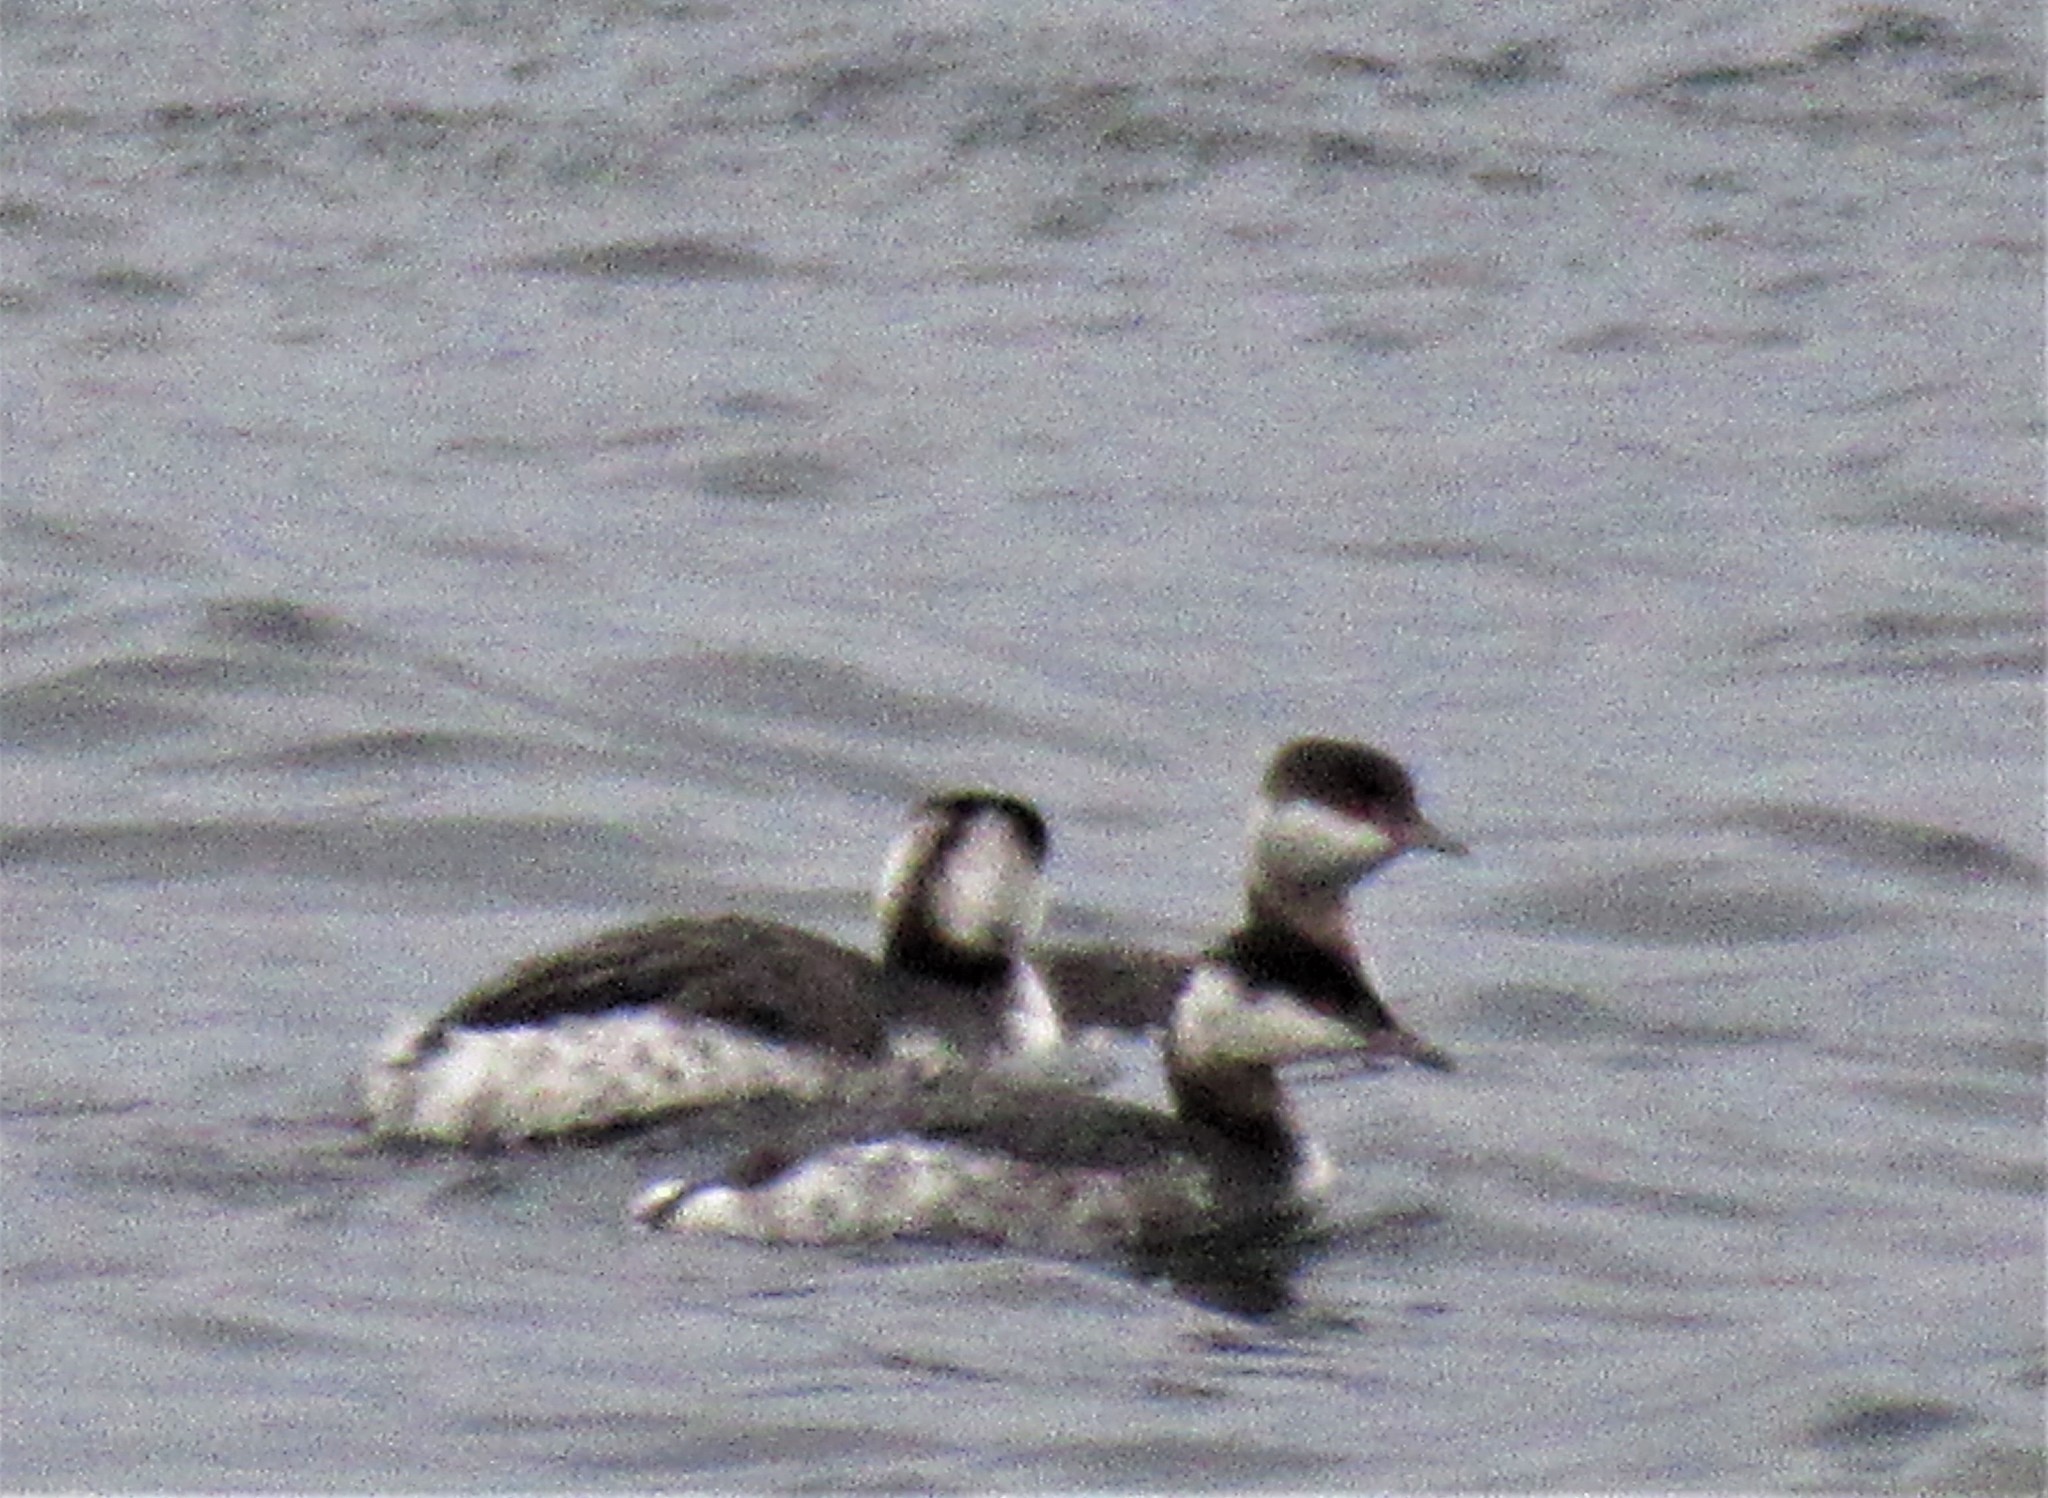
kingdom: Animalia
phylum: Chordata
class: Aves
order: Podicipediformes
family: Podicipedidae
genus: Podiceps
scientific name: Podiceps auritus
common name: Horned grebe
